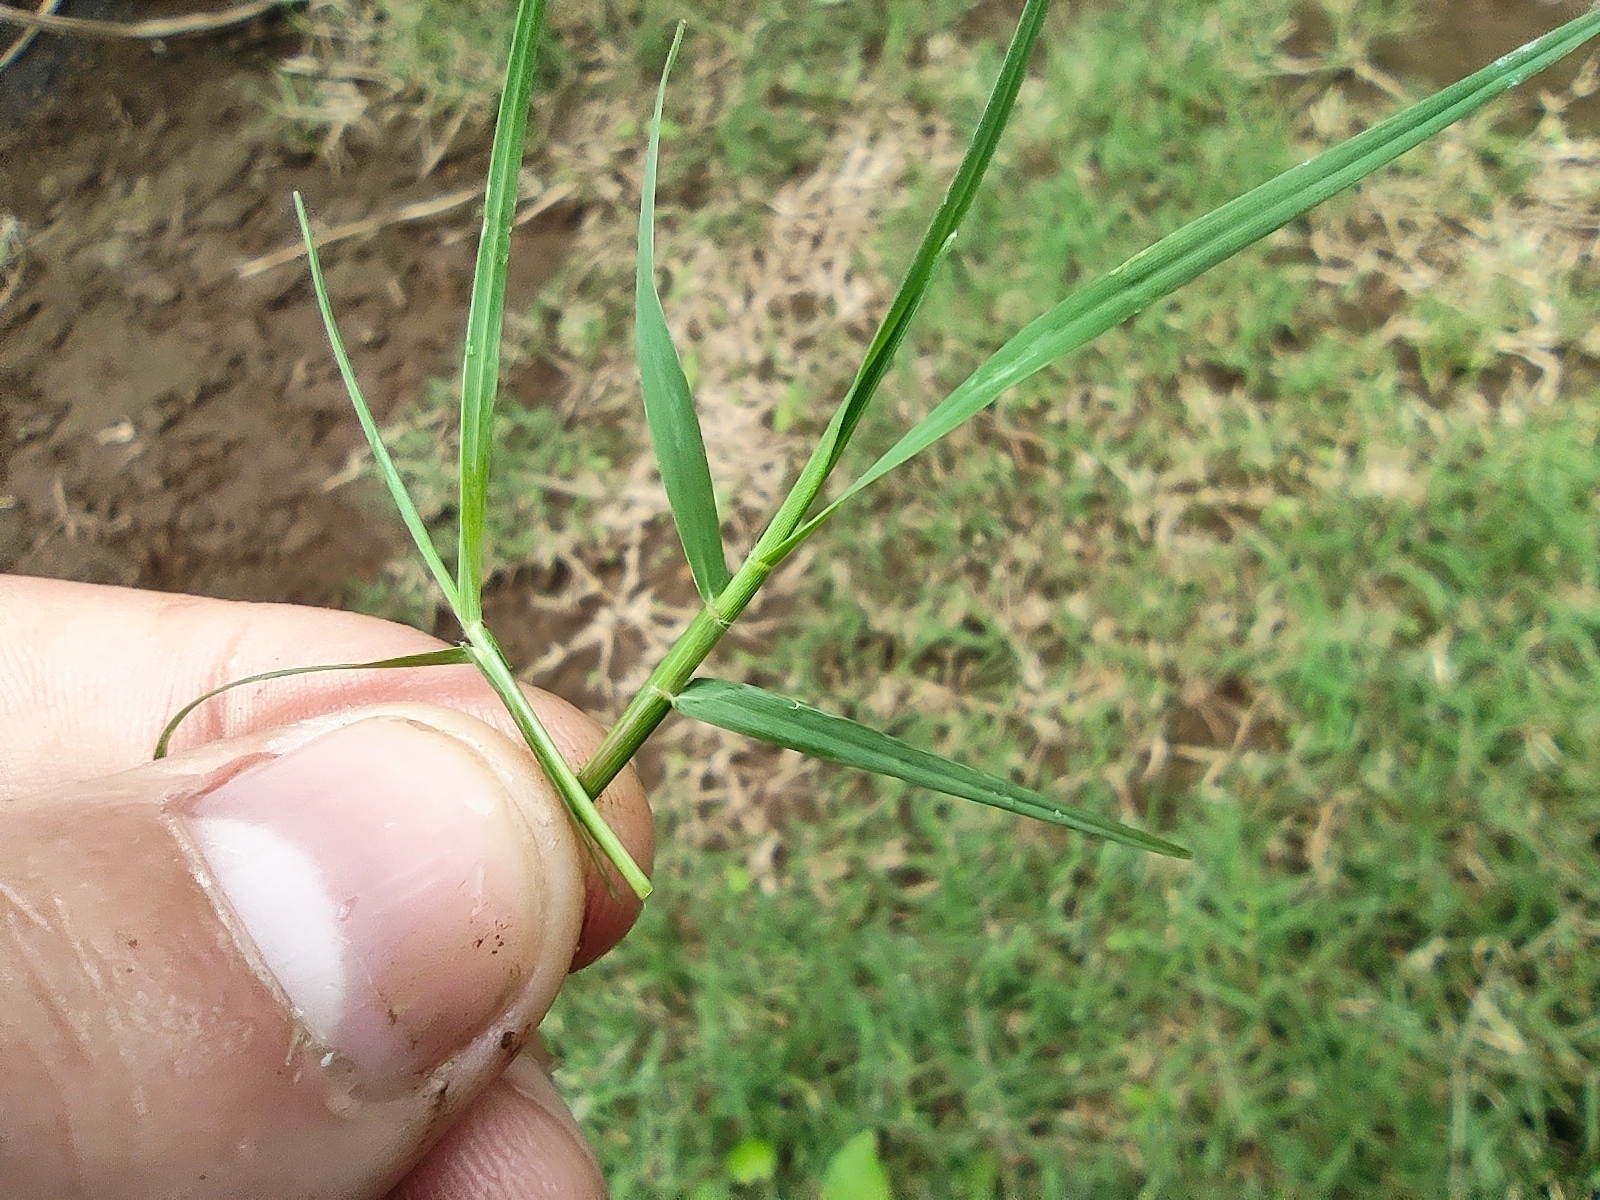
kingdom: Plantae
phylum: Tracheophyta
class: Liliopsida
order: Poales
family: Poaceae
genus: Cynodon
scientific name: Cynodon dactylon
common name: Bermuda grass
